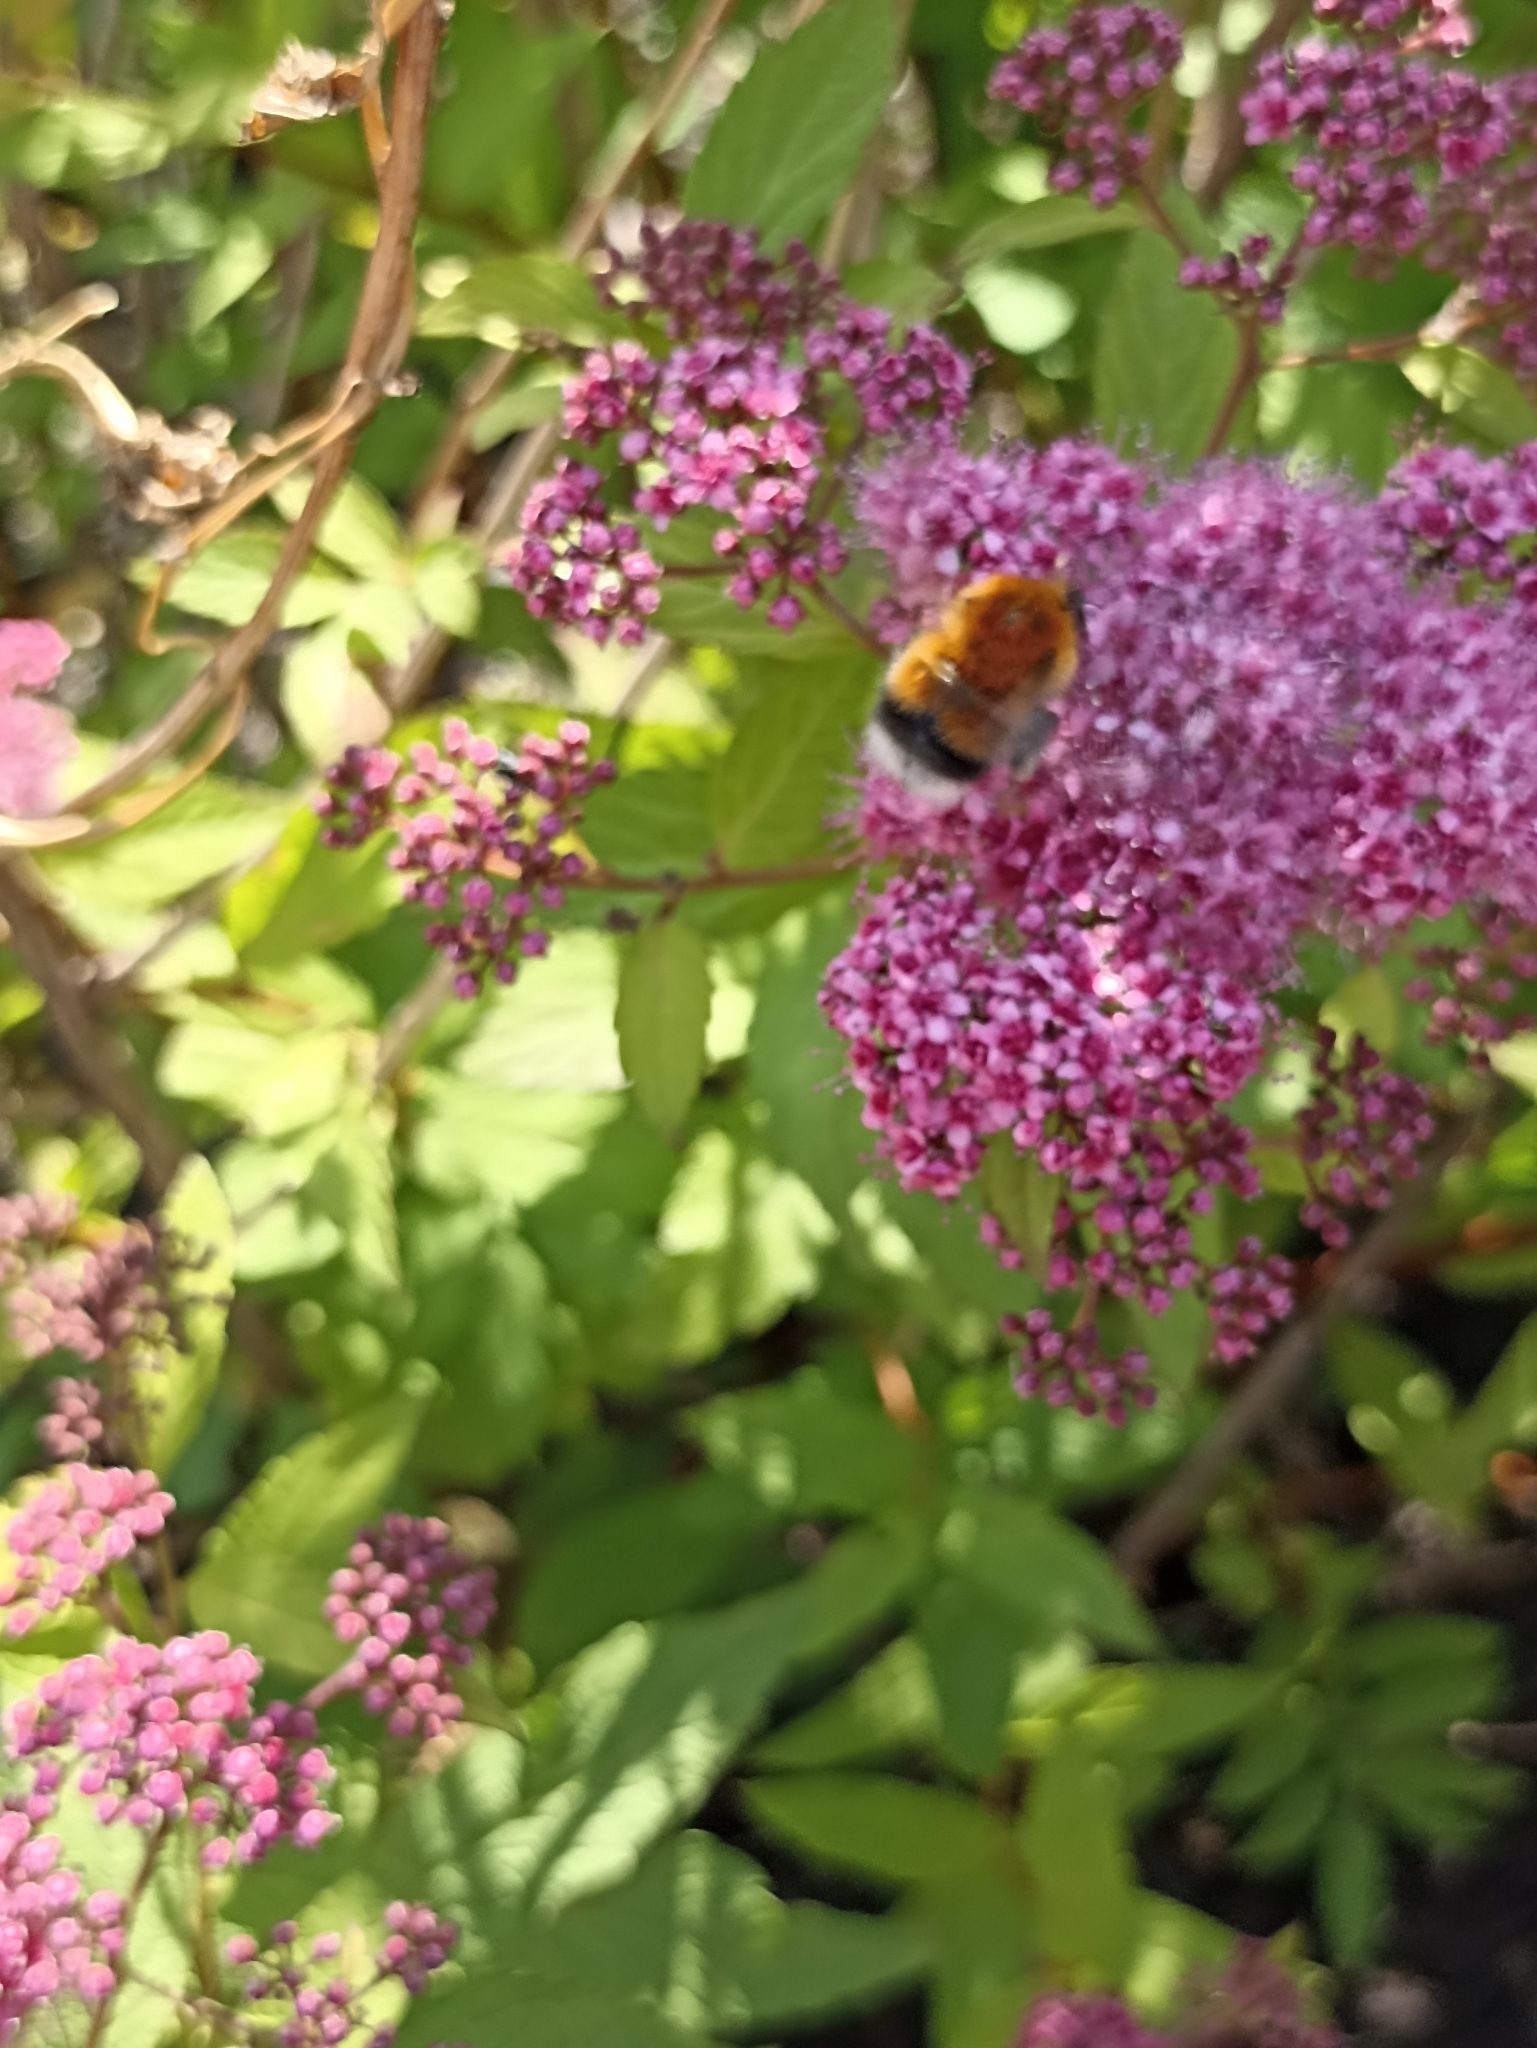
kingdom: Animalia
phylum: Arthropoda
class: Insecta
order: Hymenoptera
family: Apidae
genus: Bombus
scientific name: Bombus hypnorum
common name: New garden bumblebee
